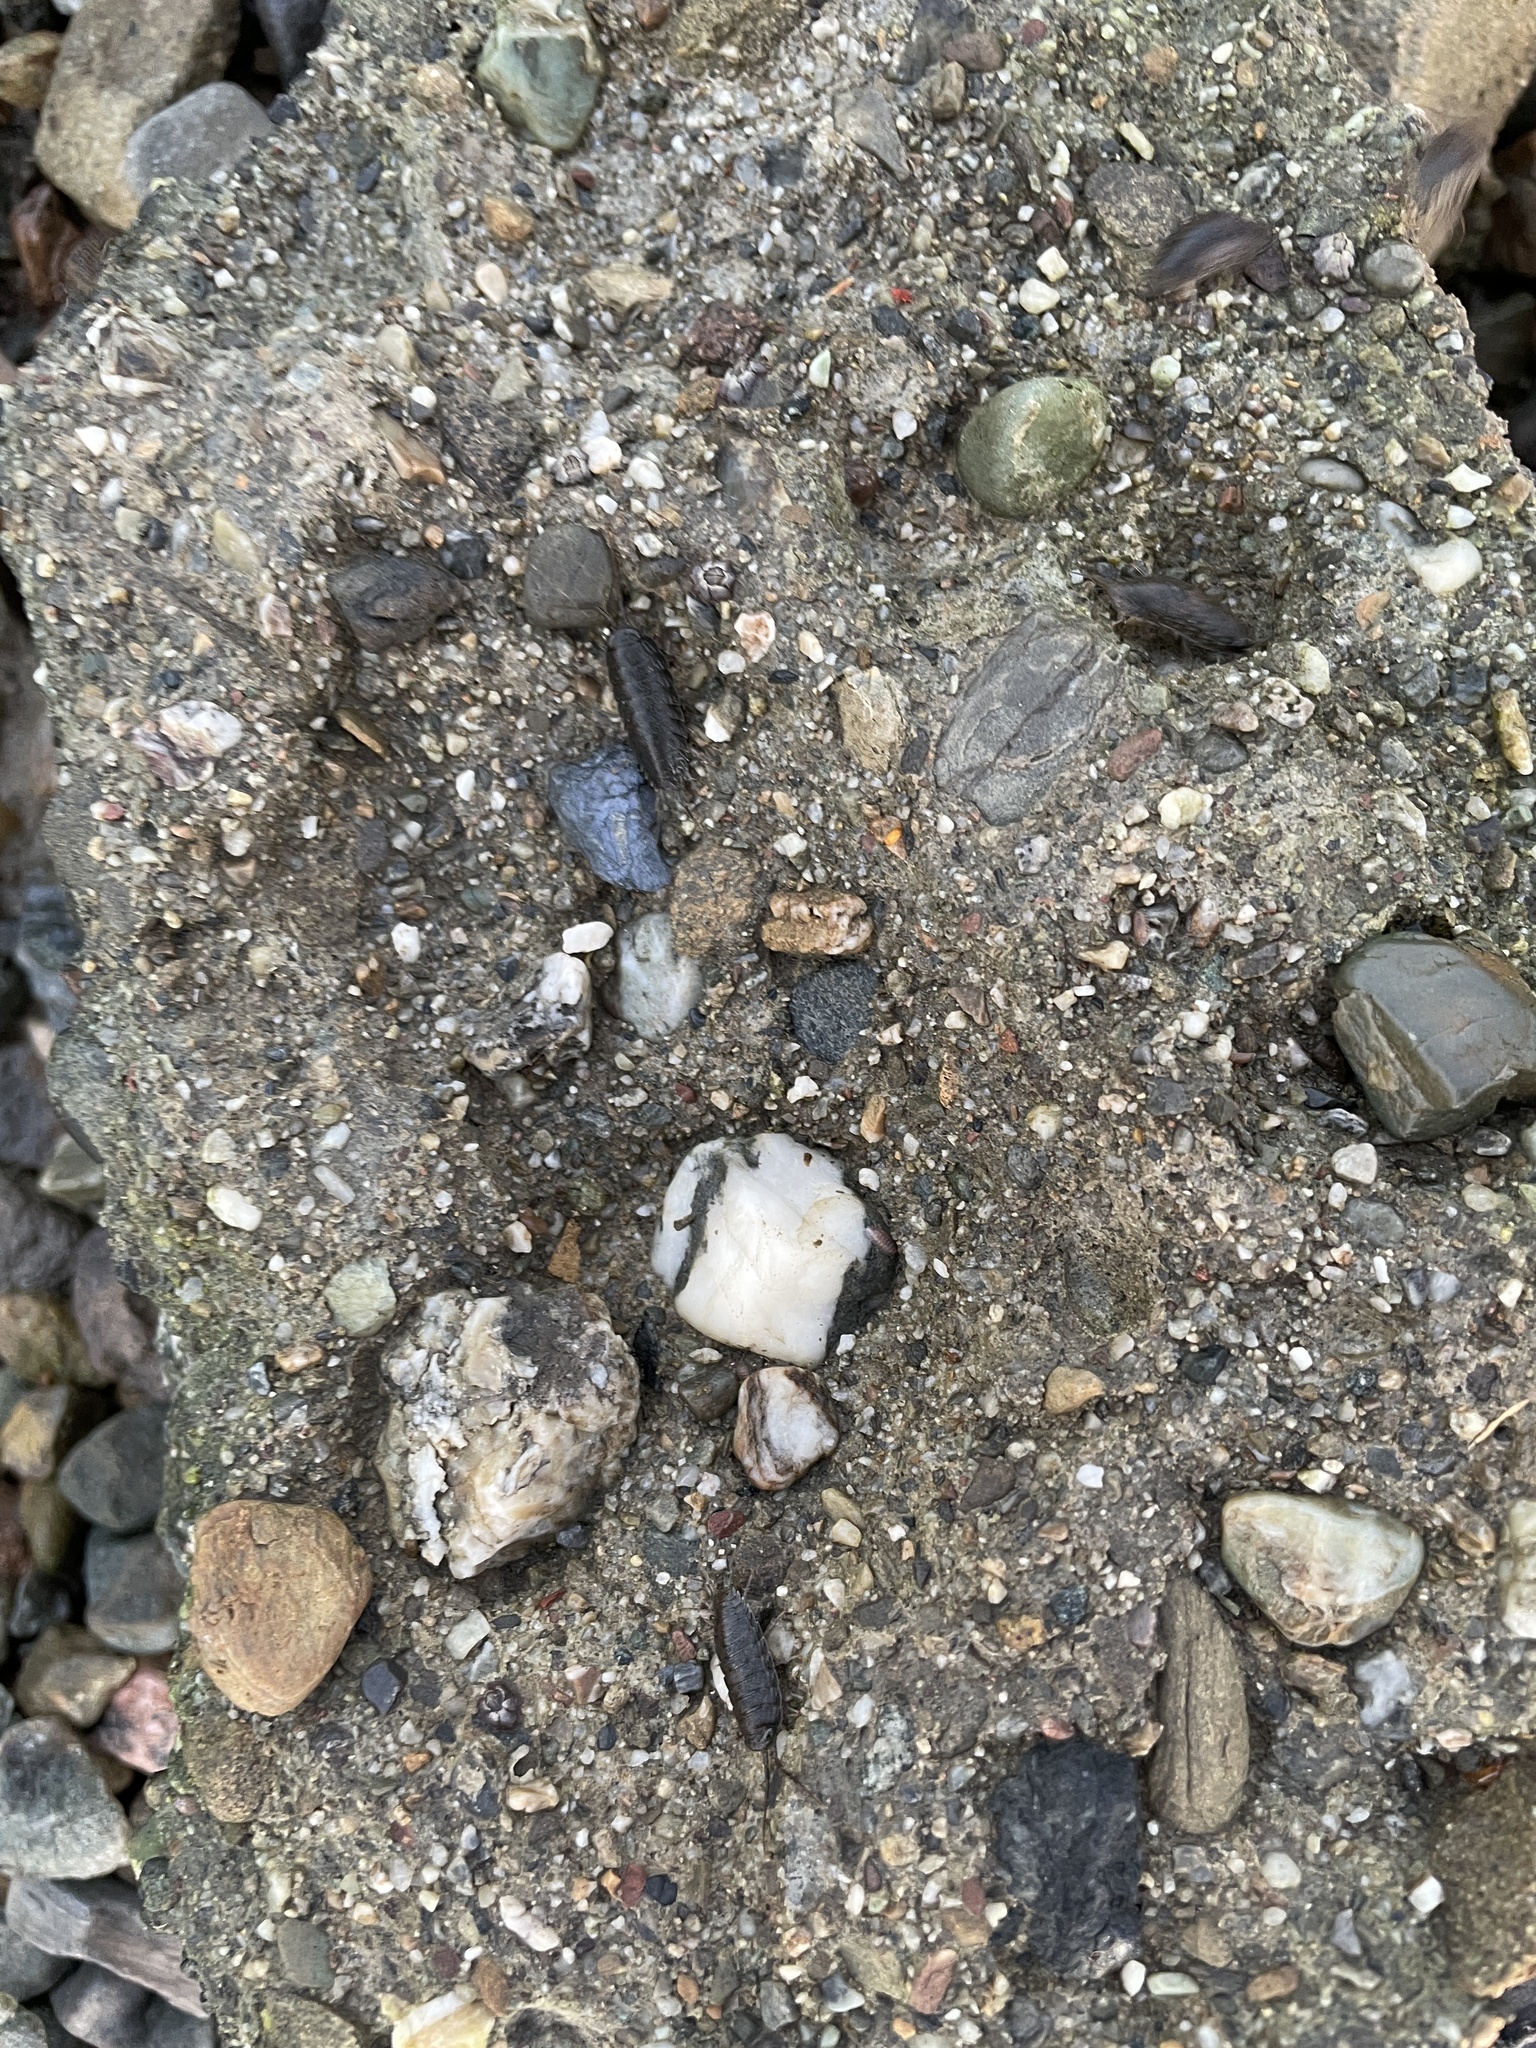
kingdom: Animalia
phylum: Arthropoda
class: Malacostraca
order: Isopoda
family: Ligiidae
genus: Ligia
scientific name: Ligia occidentalis
